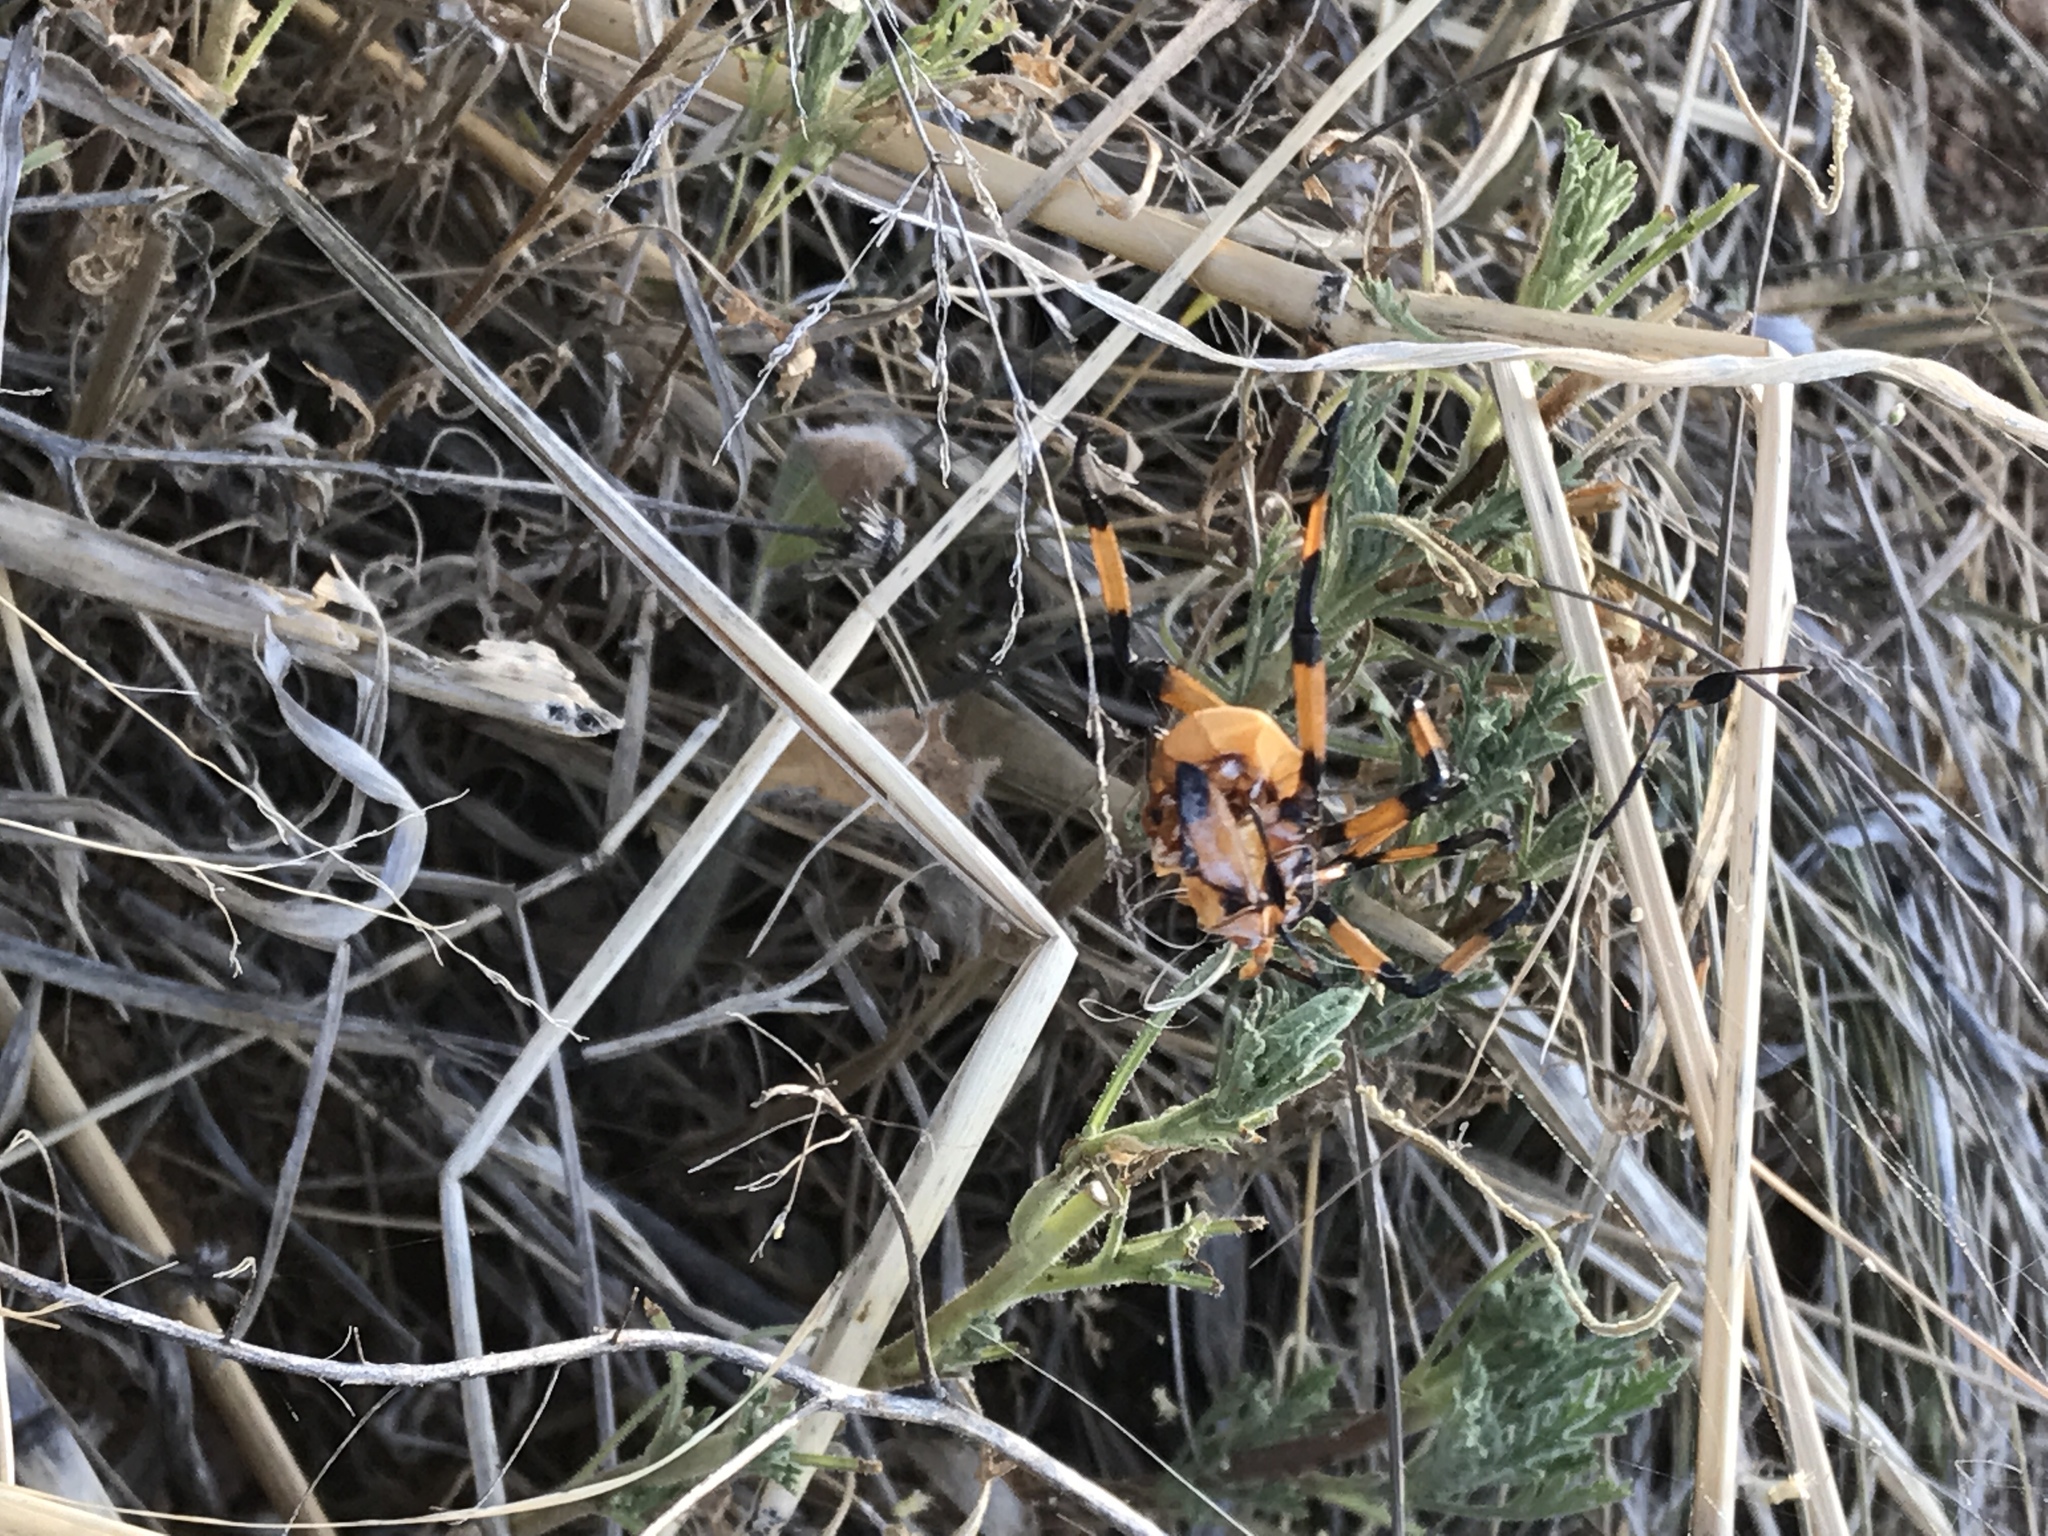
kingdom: Animalia
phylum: Arthropoda
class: Insecta
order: Hemiptera
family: Coreidae
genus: Thasus
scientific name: Thasus neocalifornicus
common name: Giant mesquite bug
